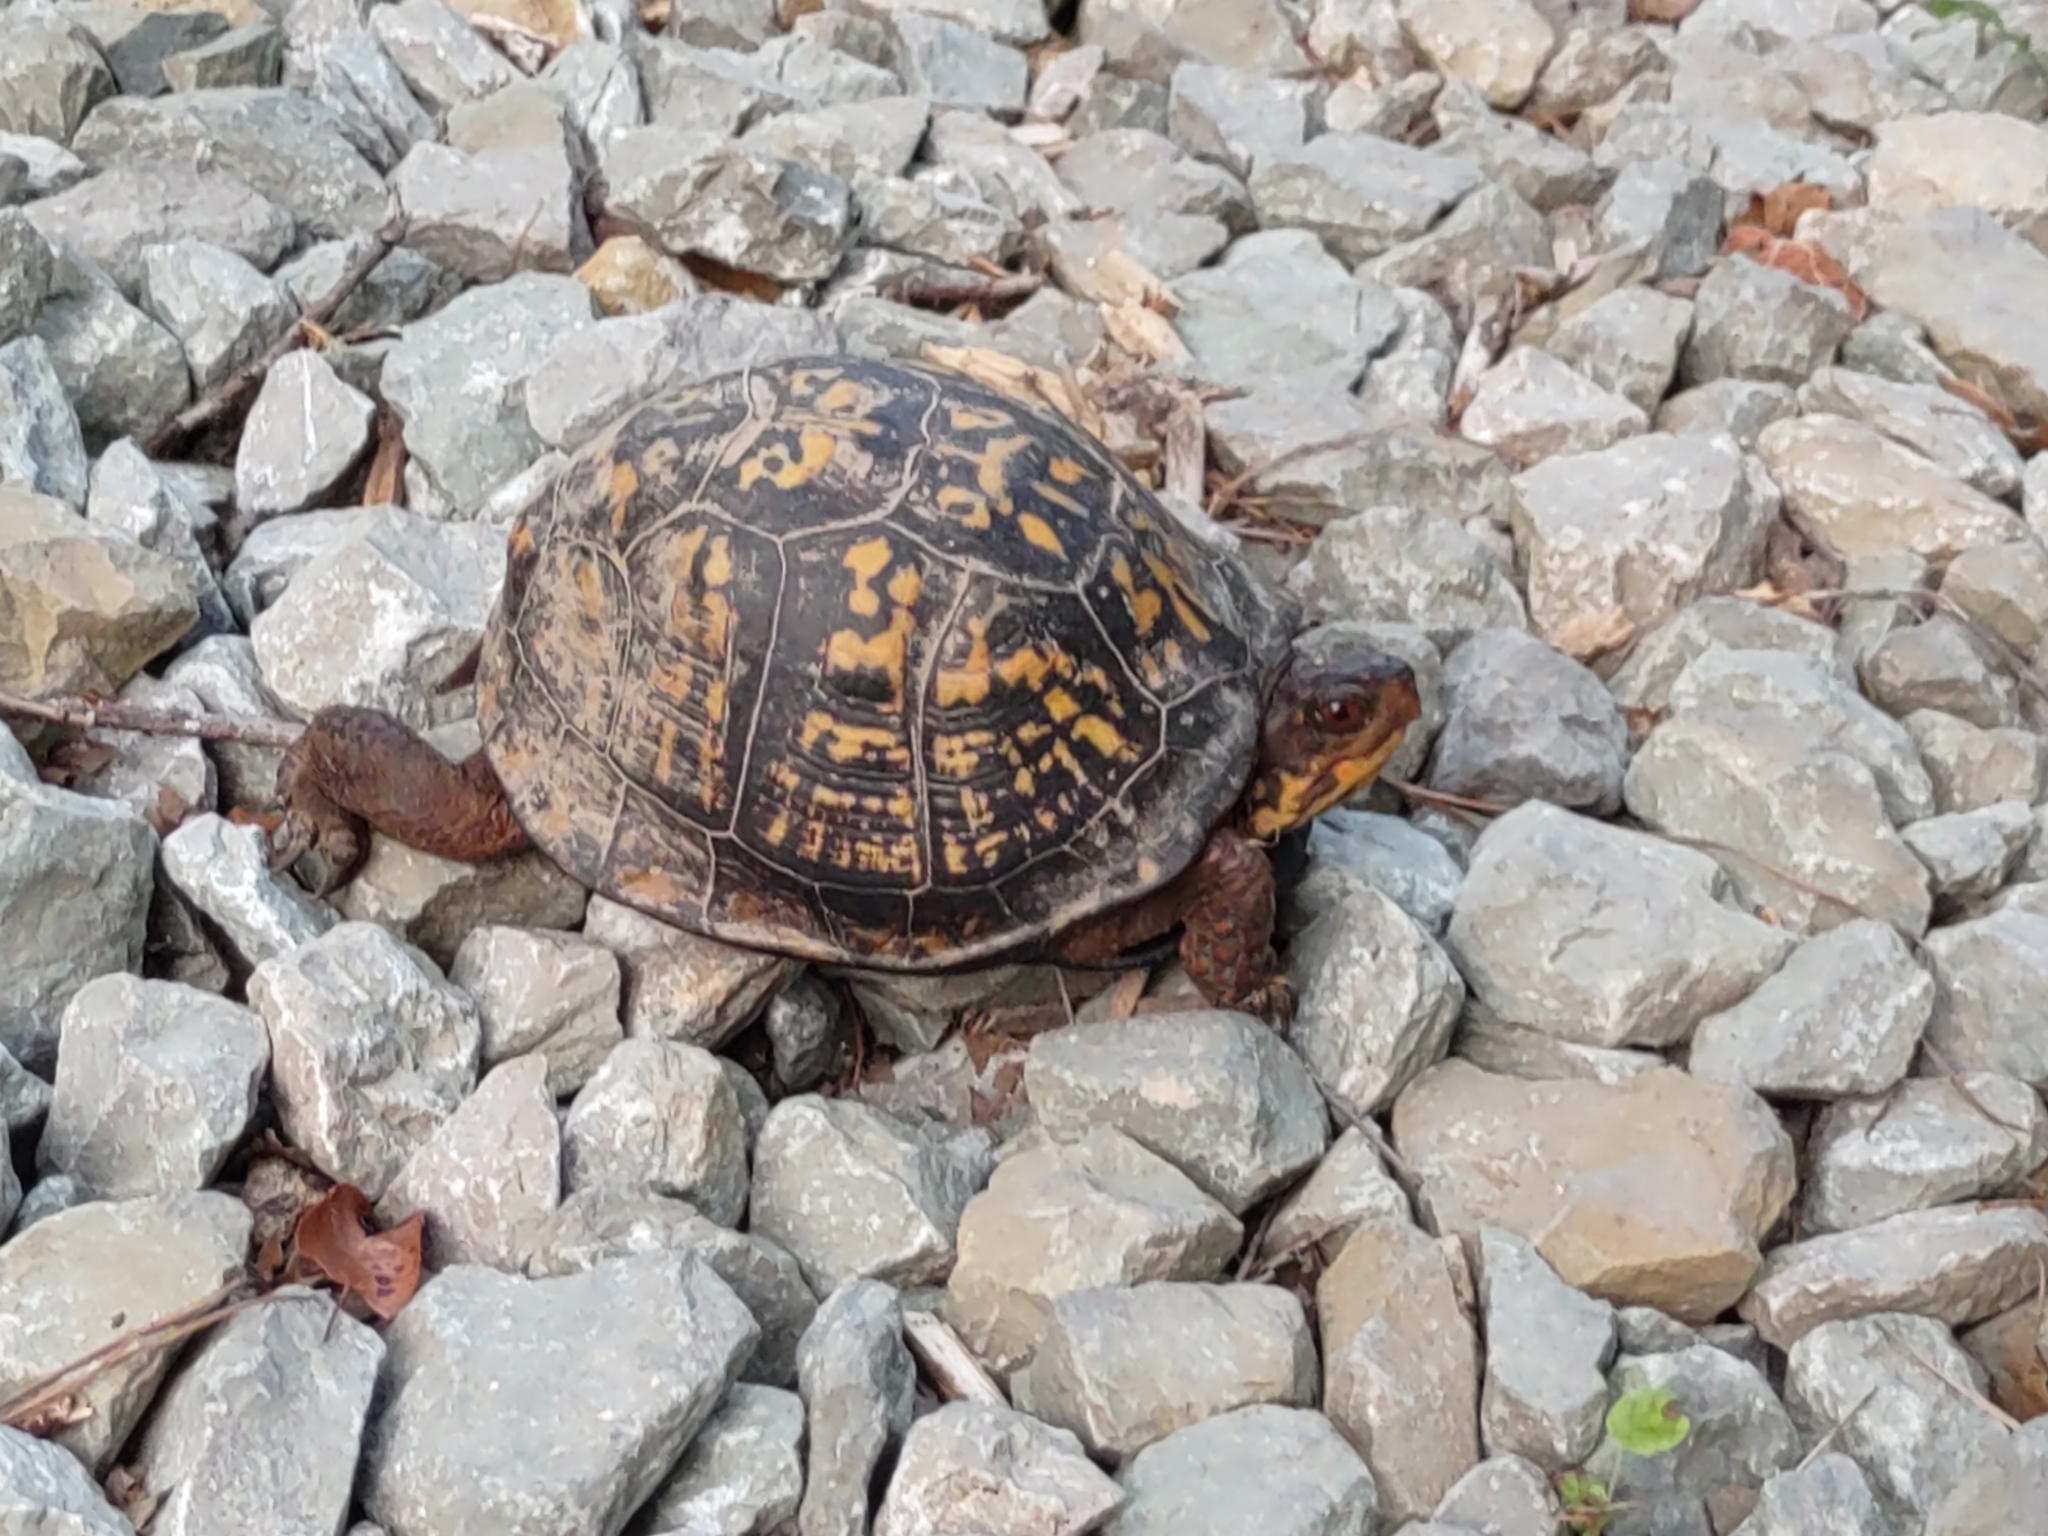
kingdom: Animalia
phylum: Chordata
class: Testudines
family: Emydidae
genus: Terrapene
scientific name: Terrapene carolina
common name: Common box turtle
